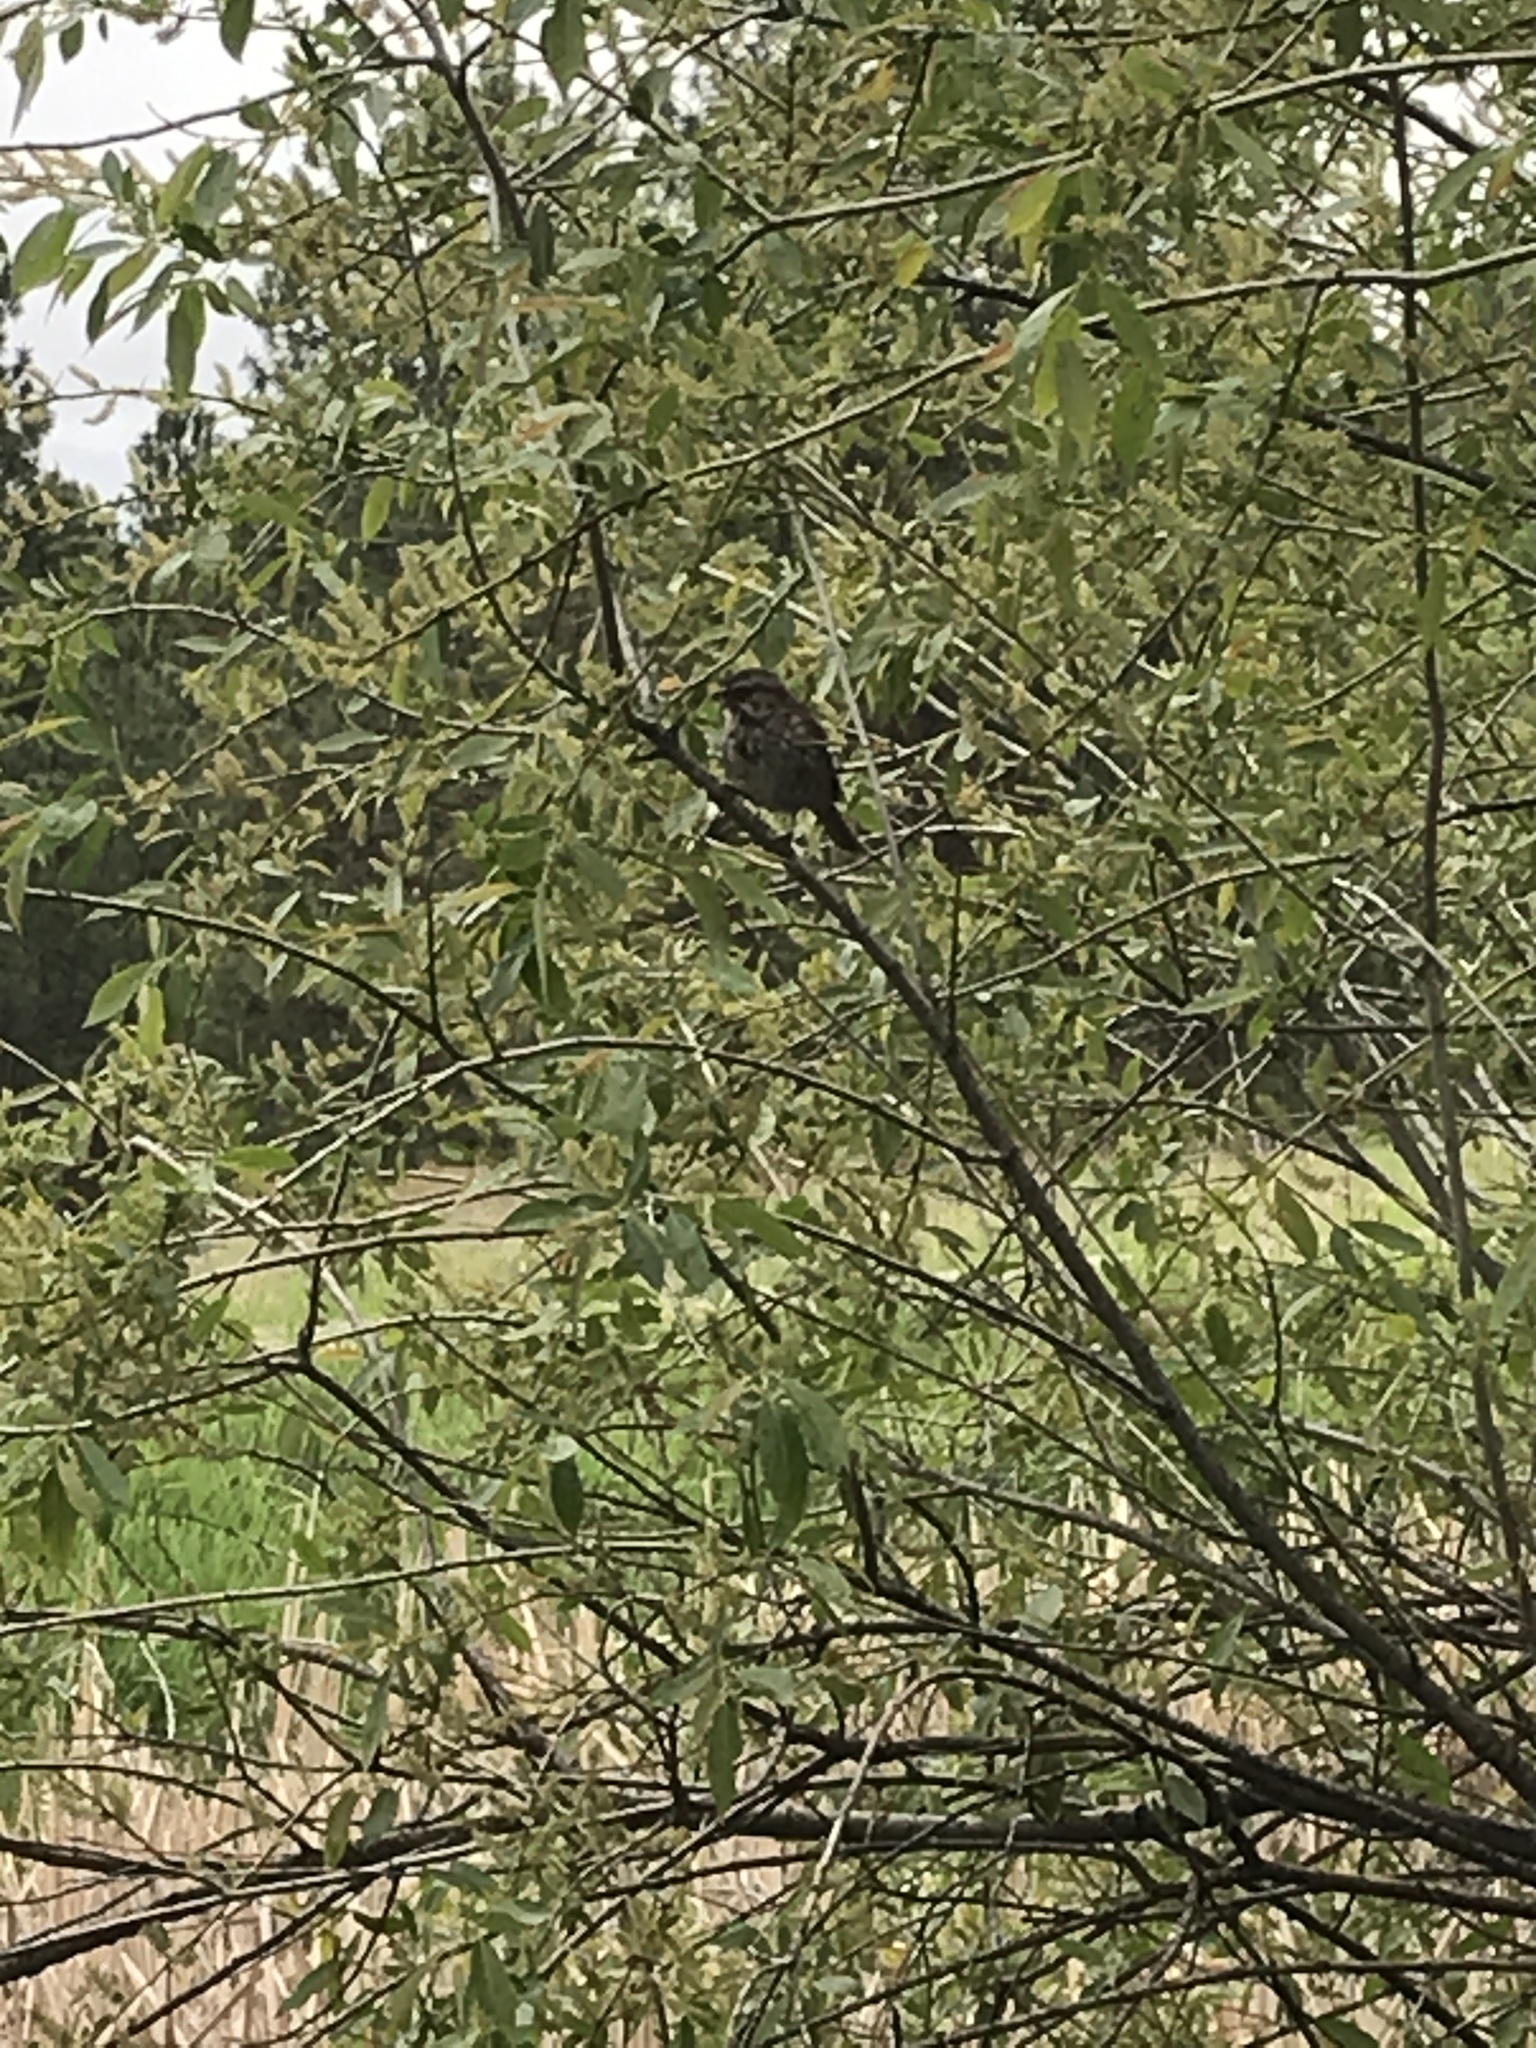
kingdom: Animalia
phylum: Chordata
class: Aves
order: Passeriformes
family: Passerellidae
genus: Melospiza
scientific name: Melospiza melodia
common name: Song sparrow
